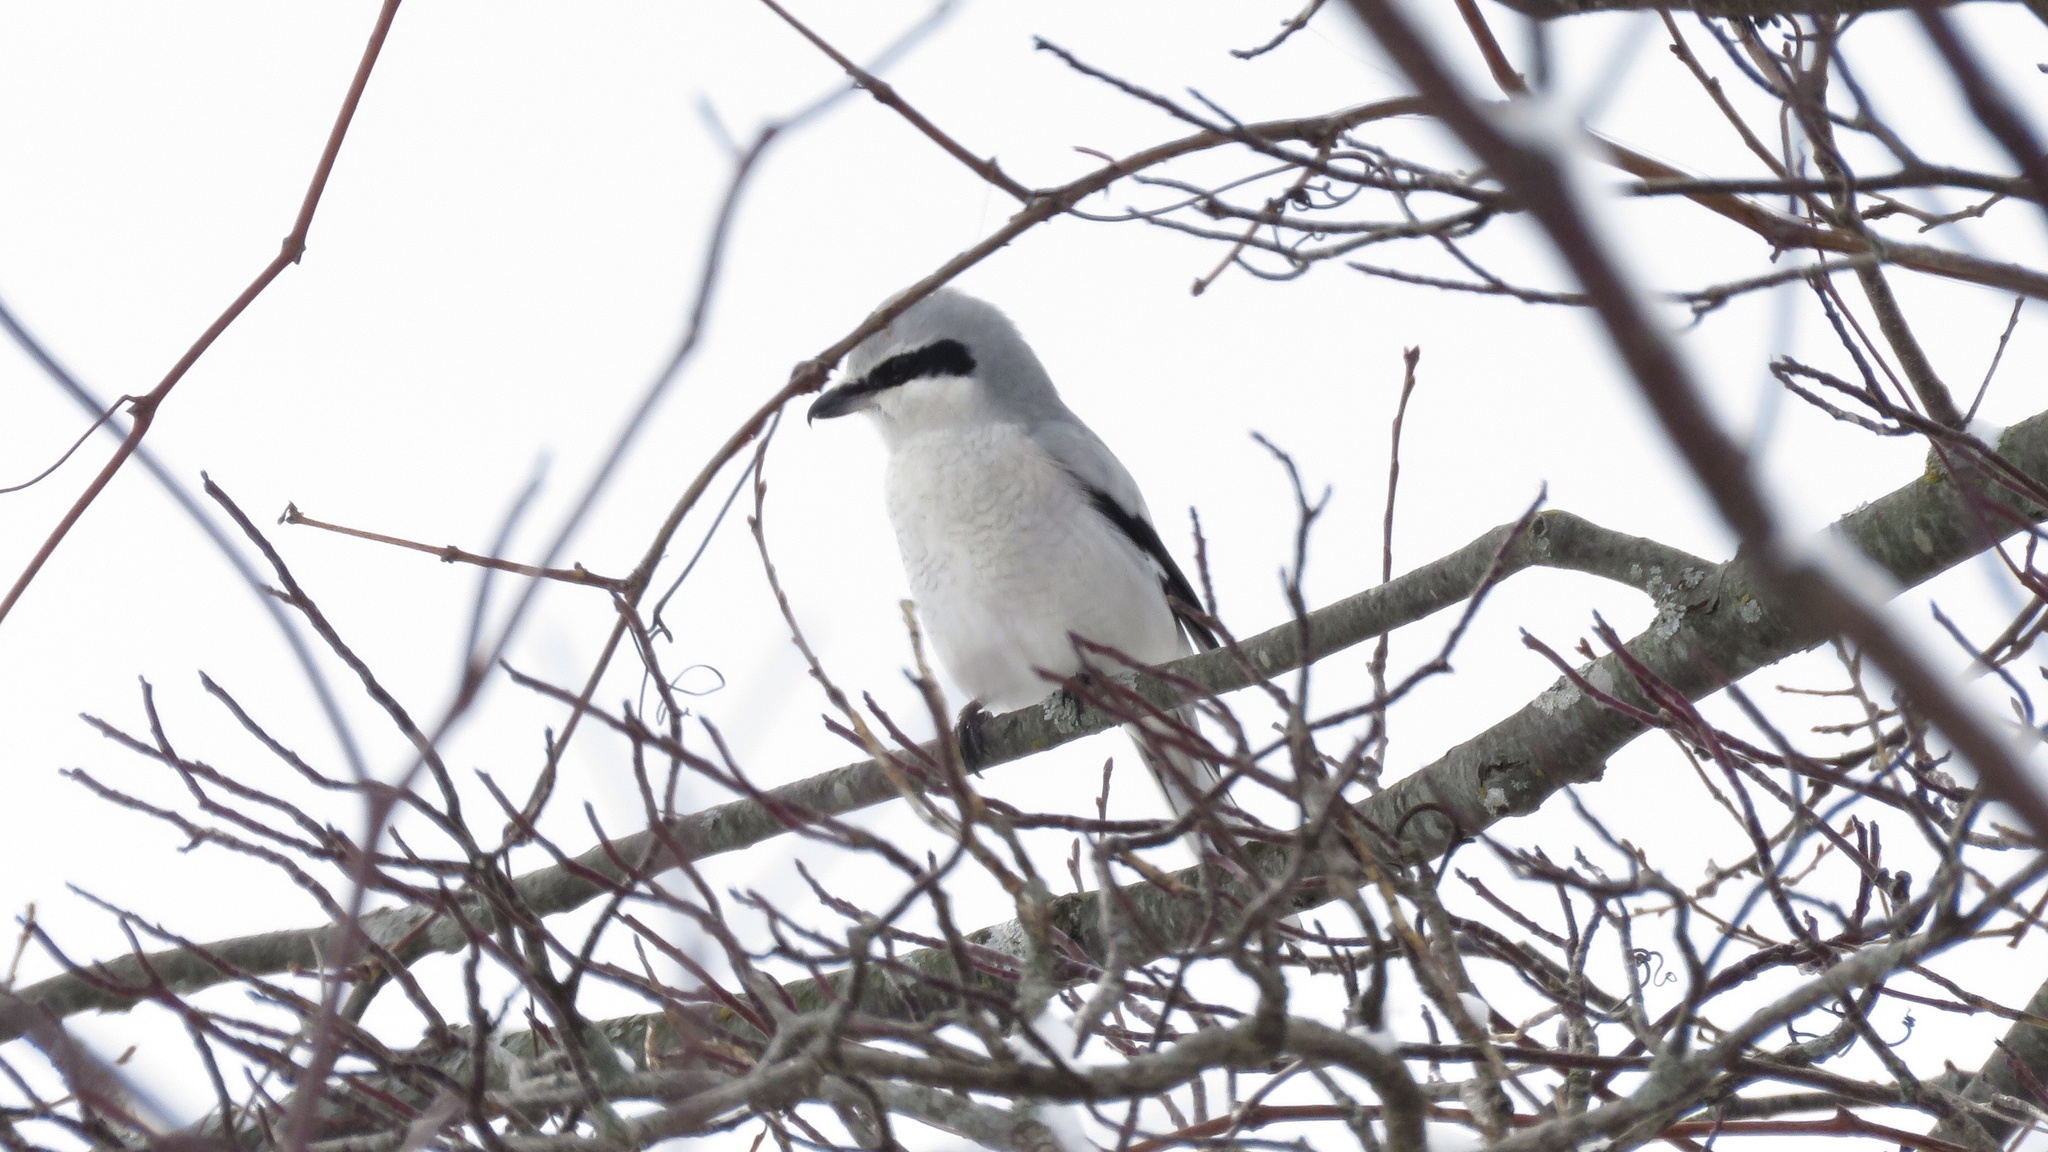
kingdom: Animalia
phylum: Chordata
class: Aves
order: Passeriformes
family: Laniidae
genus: Lanius
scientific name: Lanius borealis
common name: Northern shrike
